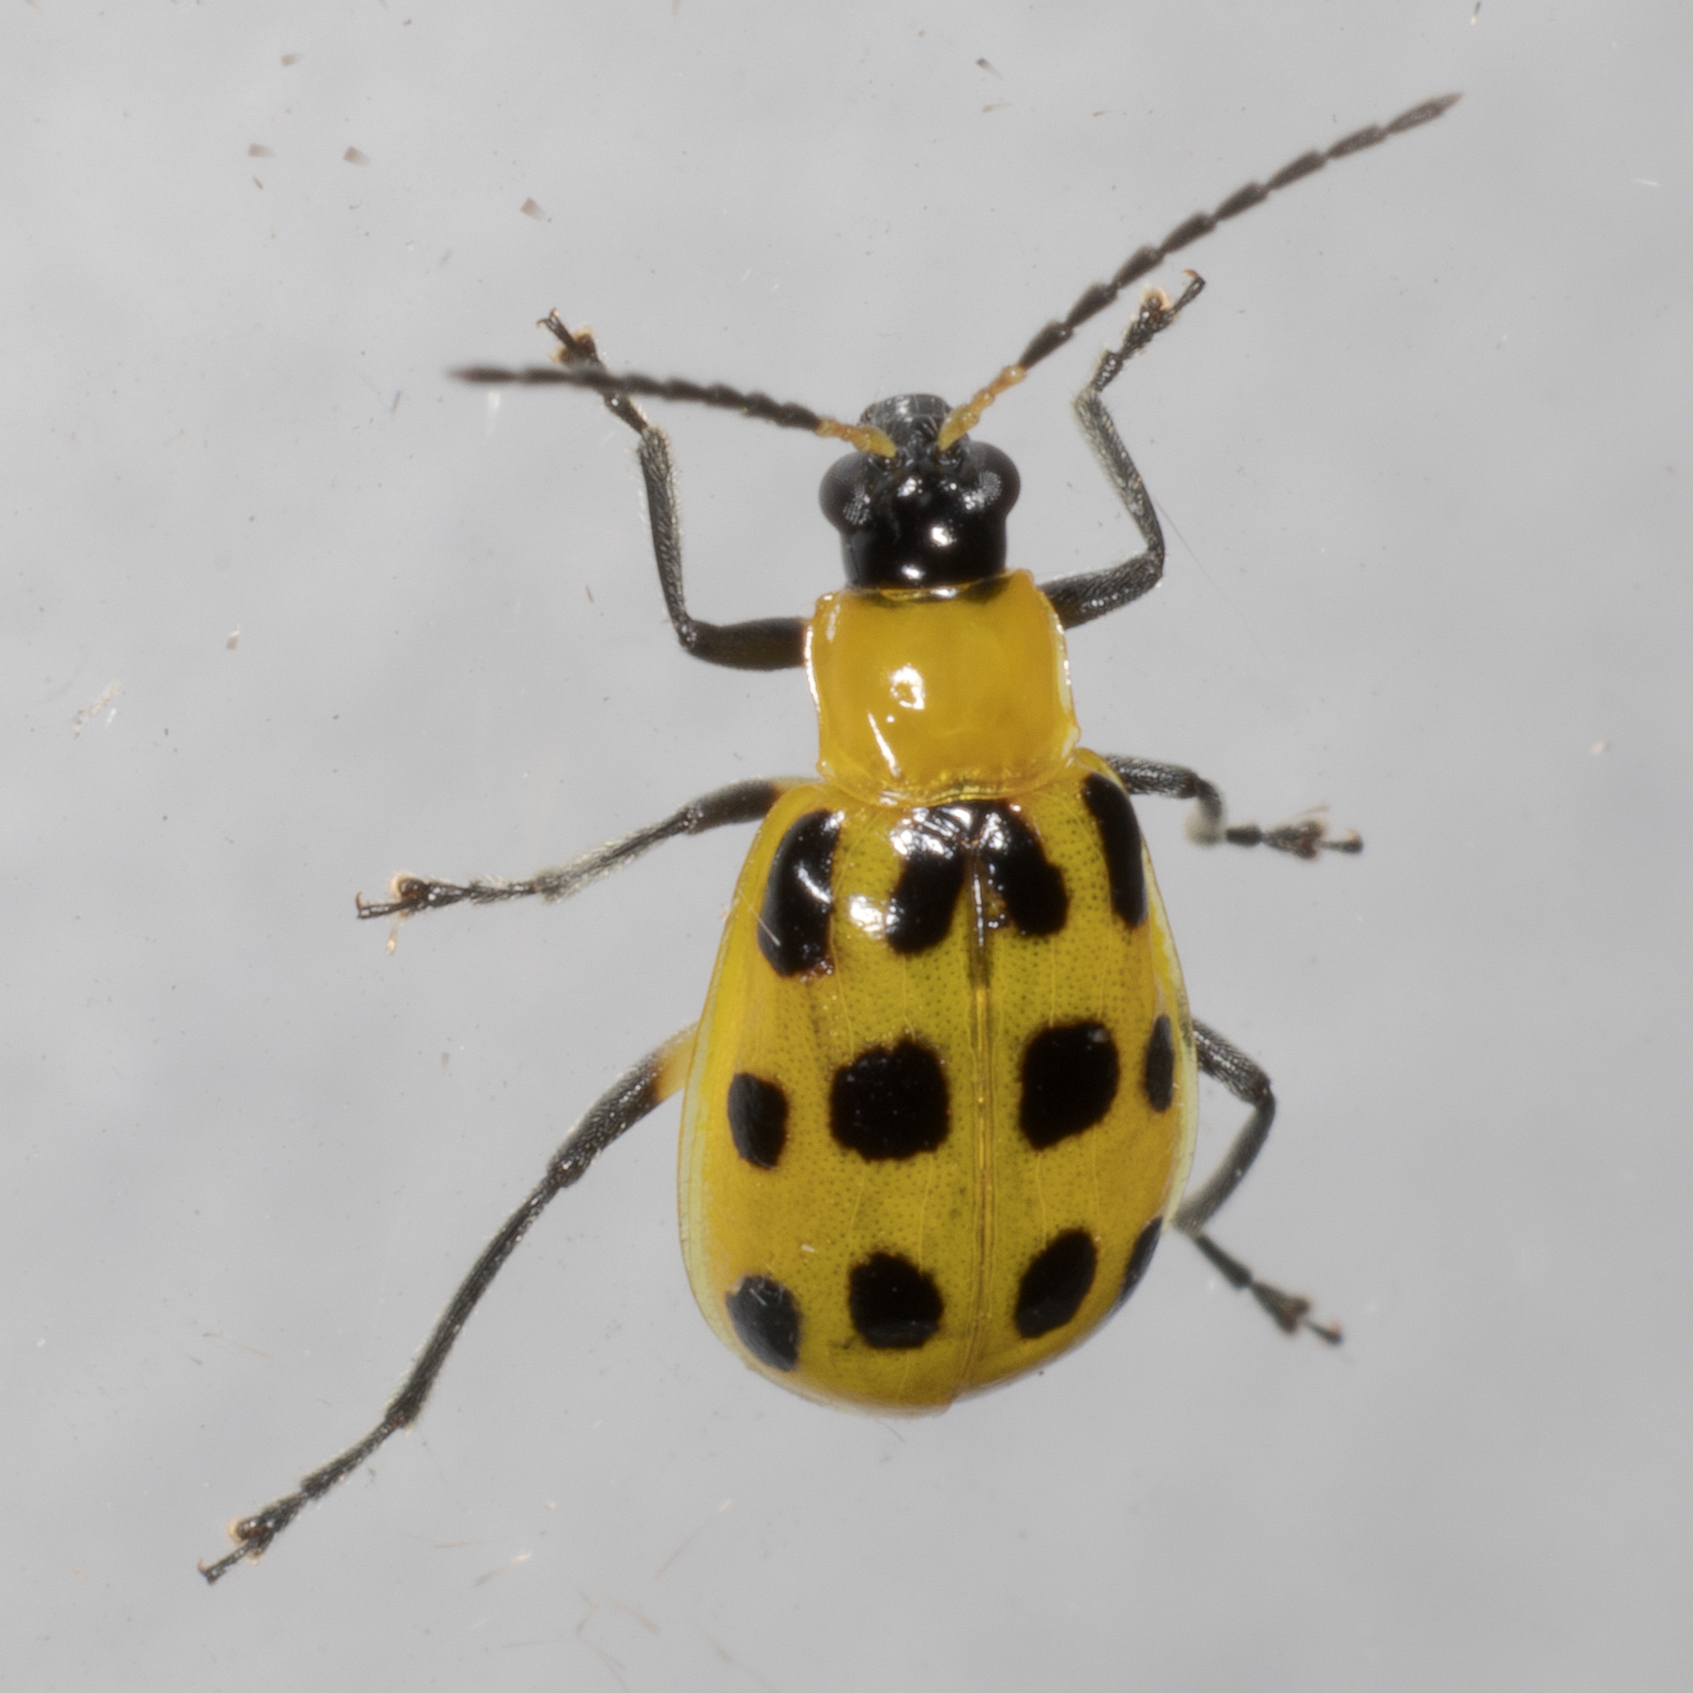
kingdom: Animalia
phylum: Arthropoda
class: Insecta
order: Coleoptera
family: Chrysomelidae
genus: Diabrotica
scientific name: Diabrotica undecimpunctata
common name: Spotted cucumber beetle
